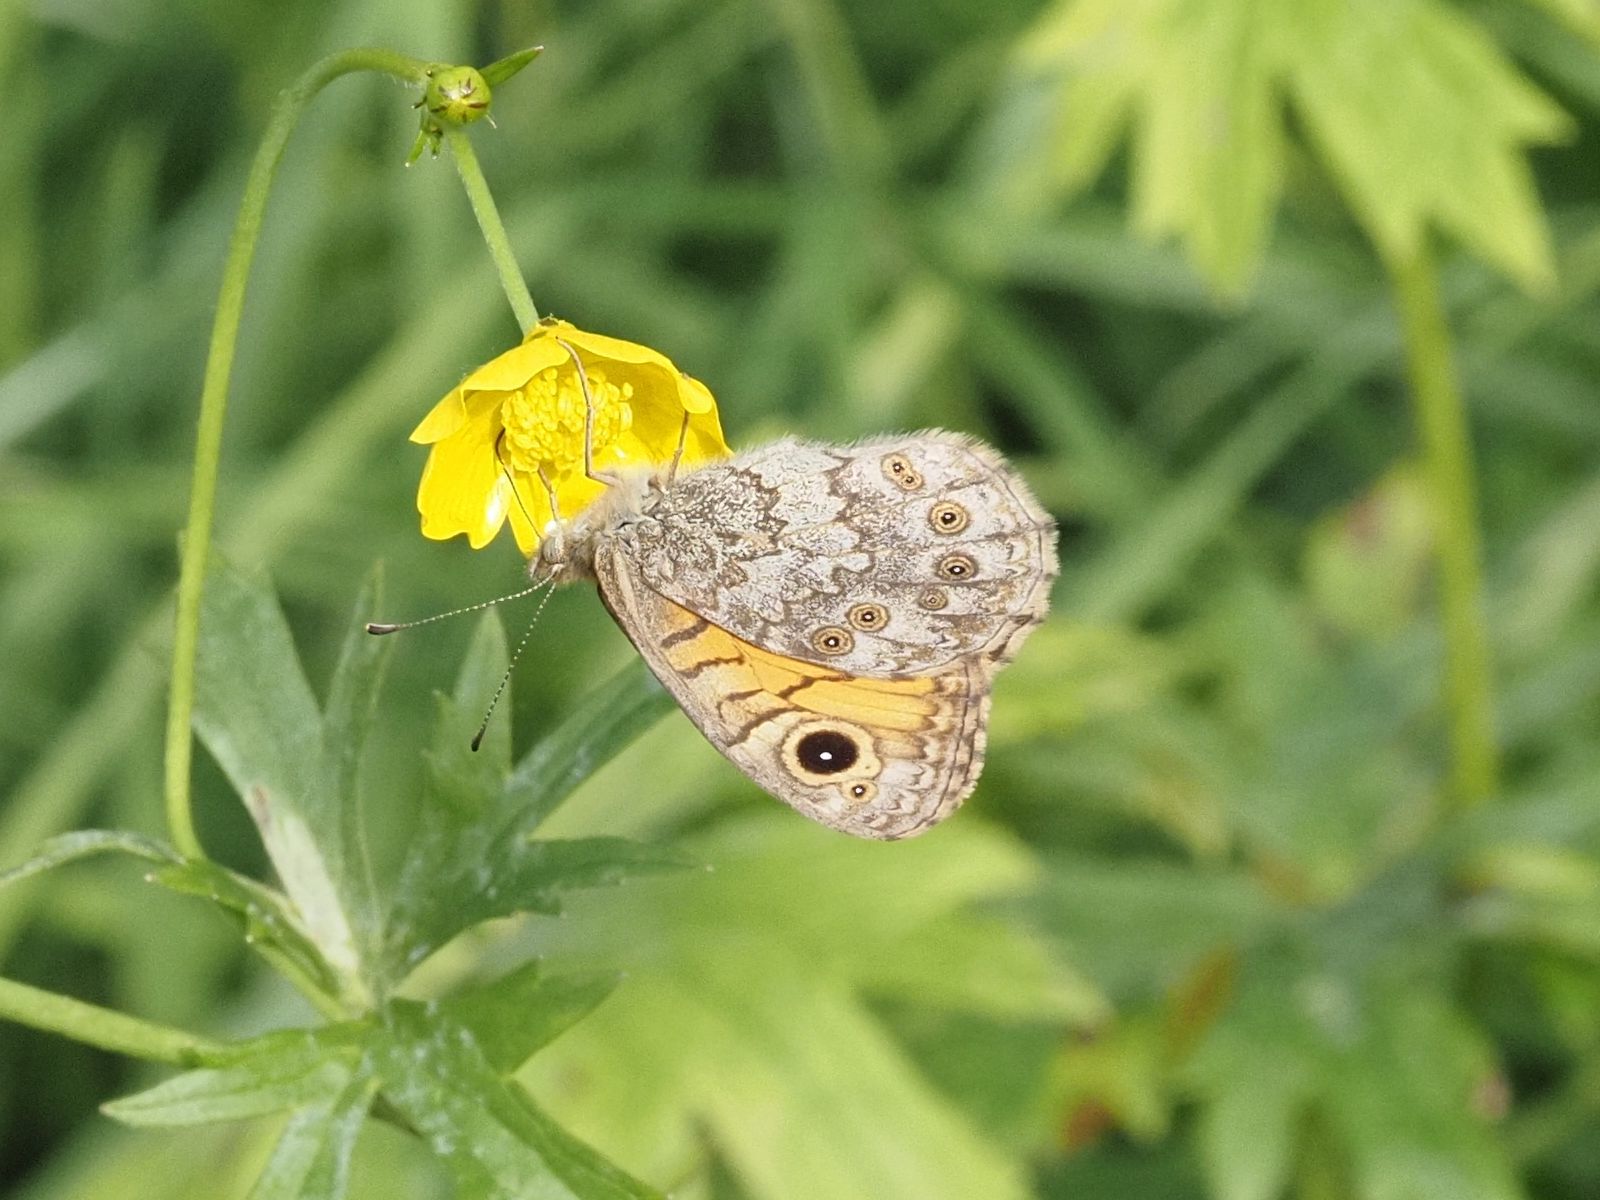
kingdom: Animalia
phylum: Arthropoda
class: Insecta
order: Lepidoptera
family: Nymphalidae
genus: Pararge
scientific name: Pararge Lasiommata megera
